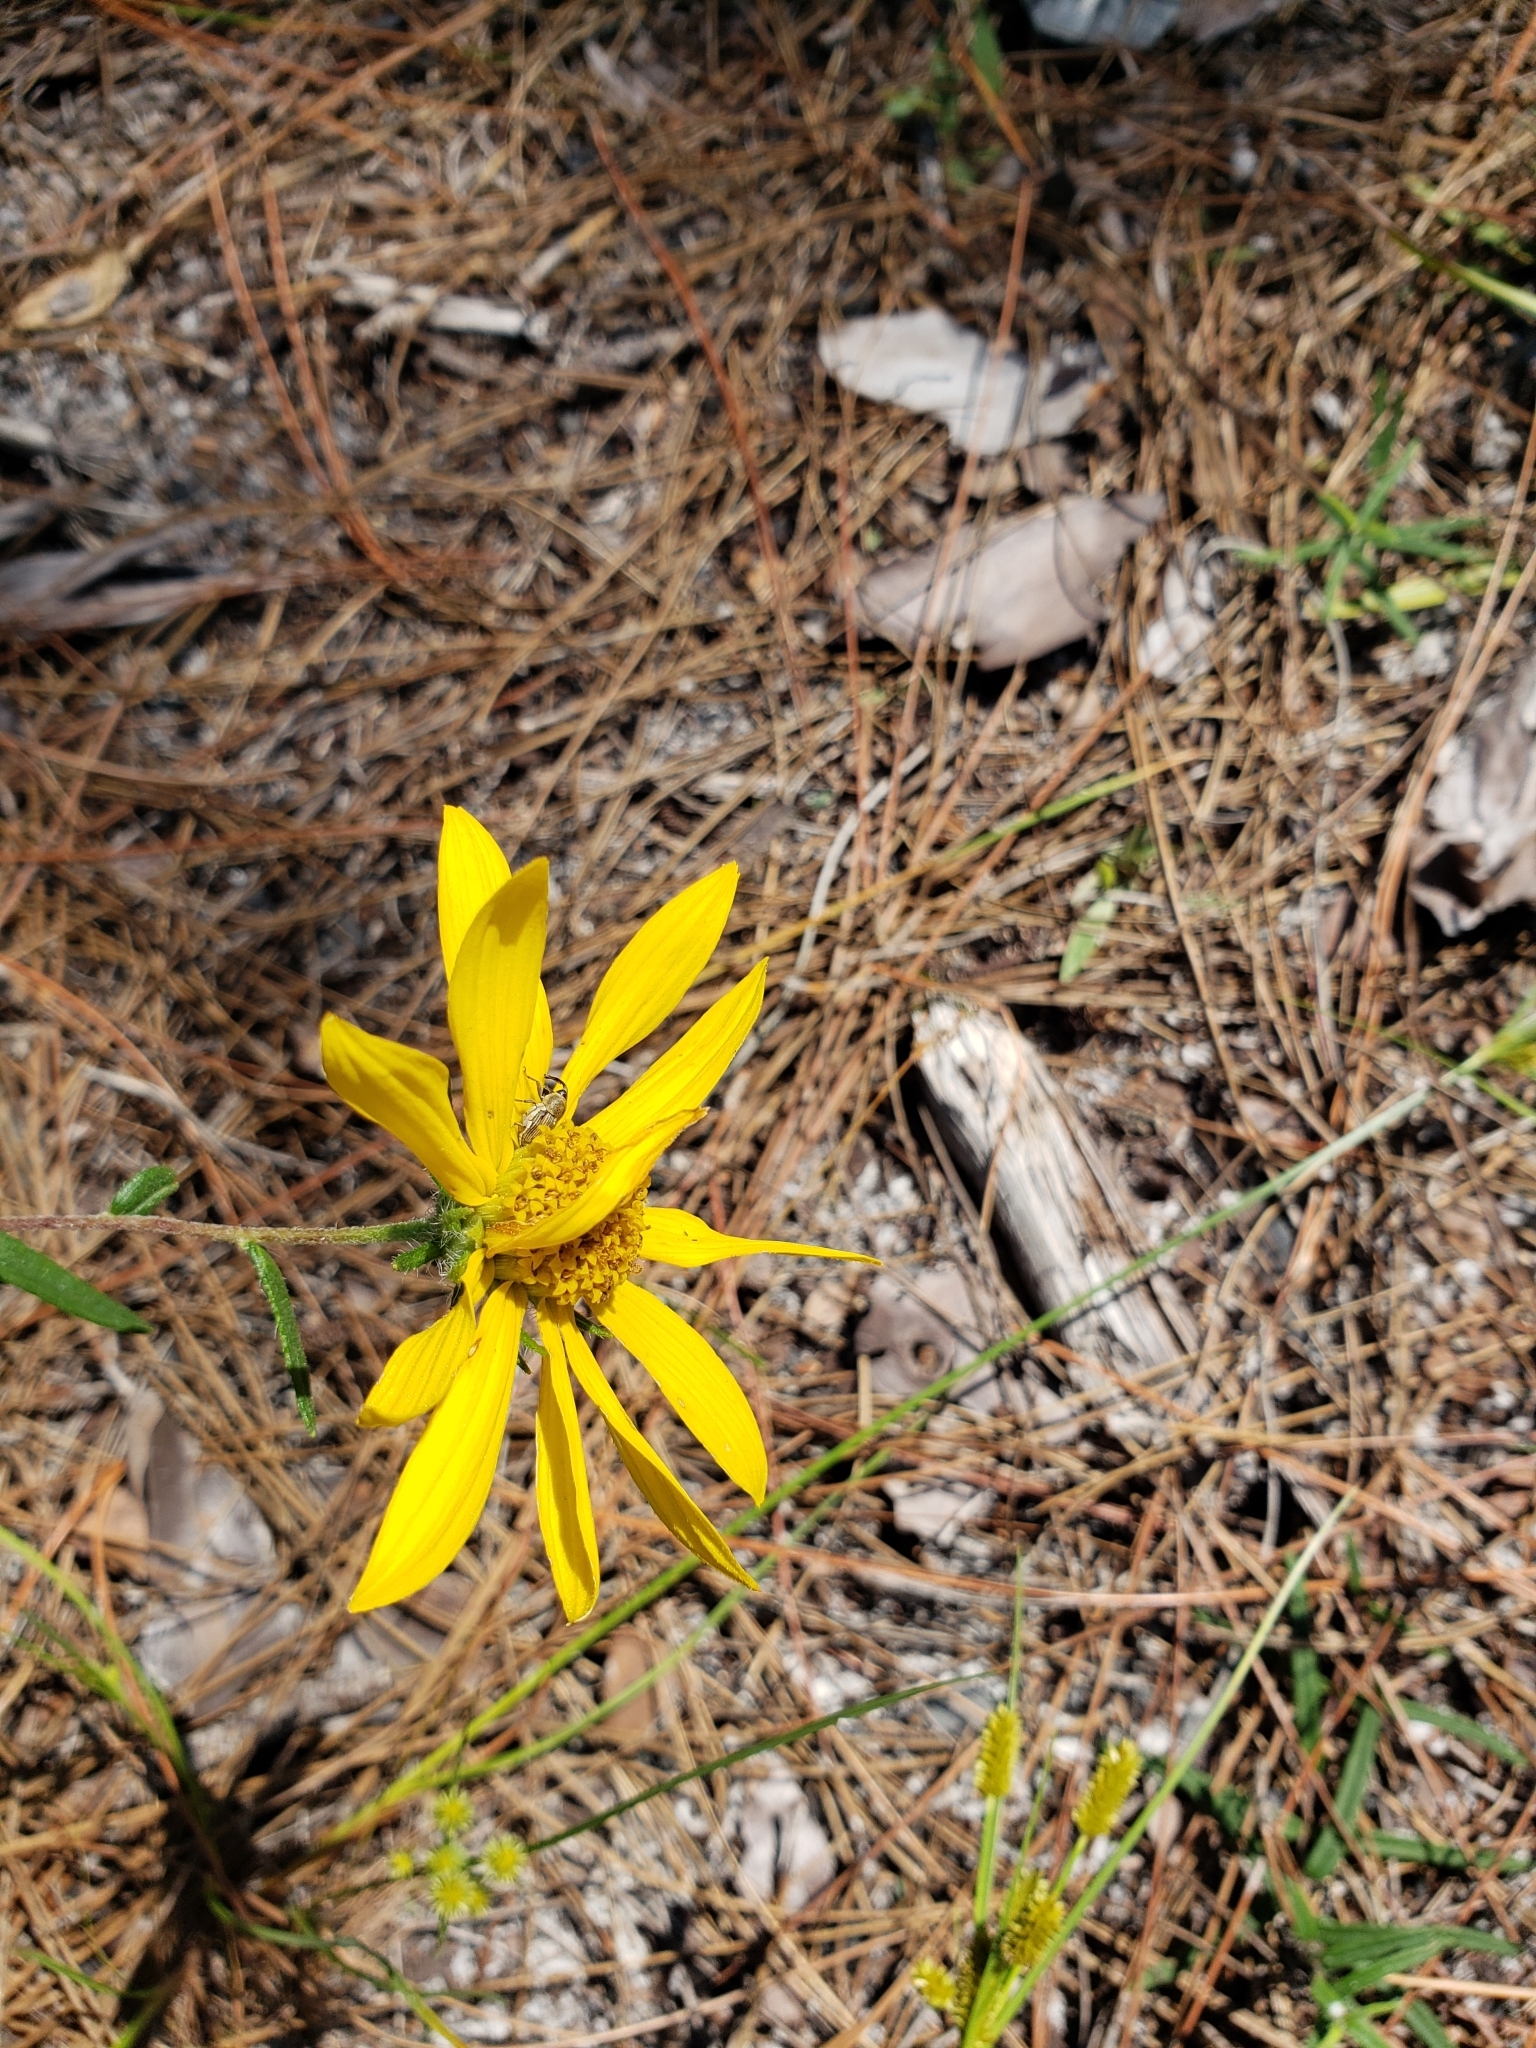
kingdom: Plantae
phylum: Tracheophyta
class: Magnoliopsida
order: Asterales
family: Asteraceae
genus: Phoebanthus
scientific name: Phoebanthus grandiflora
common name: Florida false sunflower
